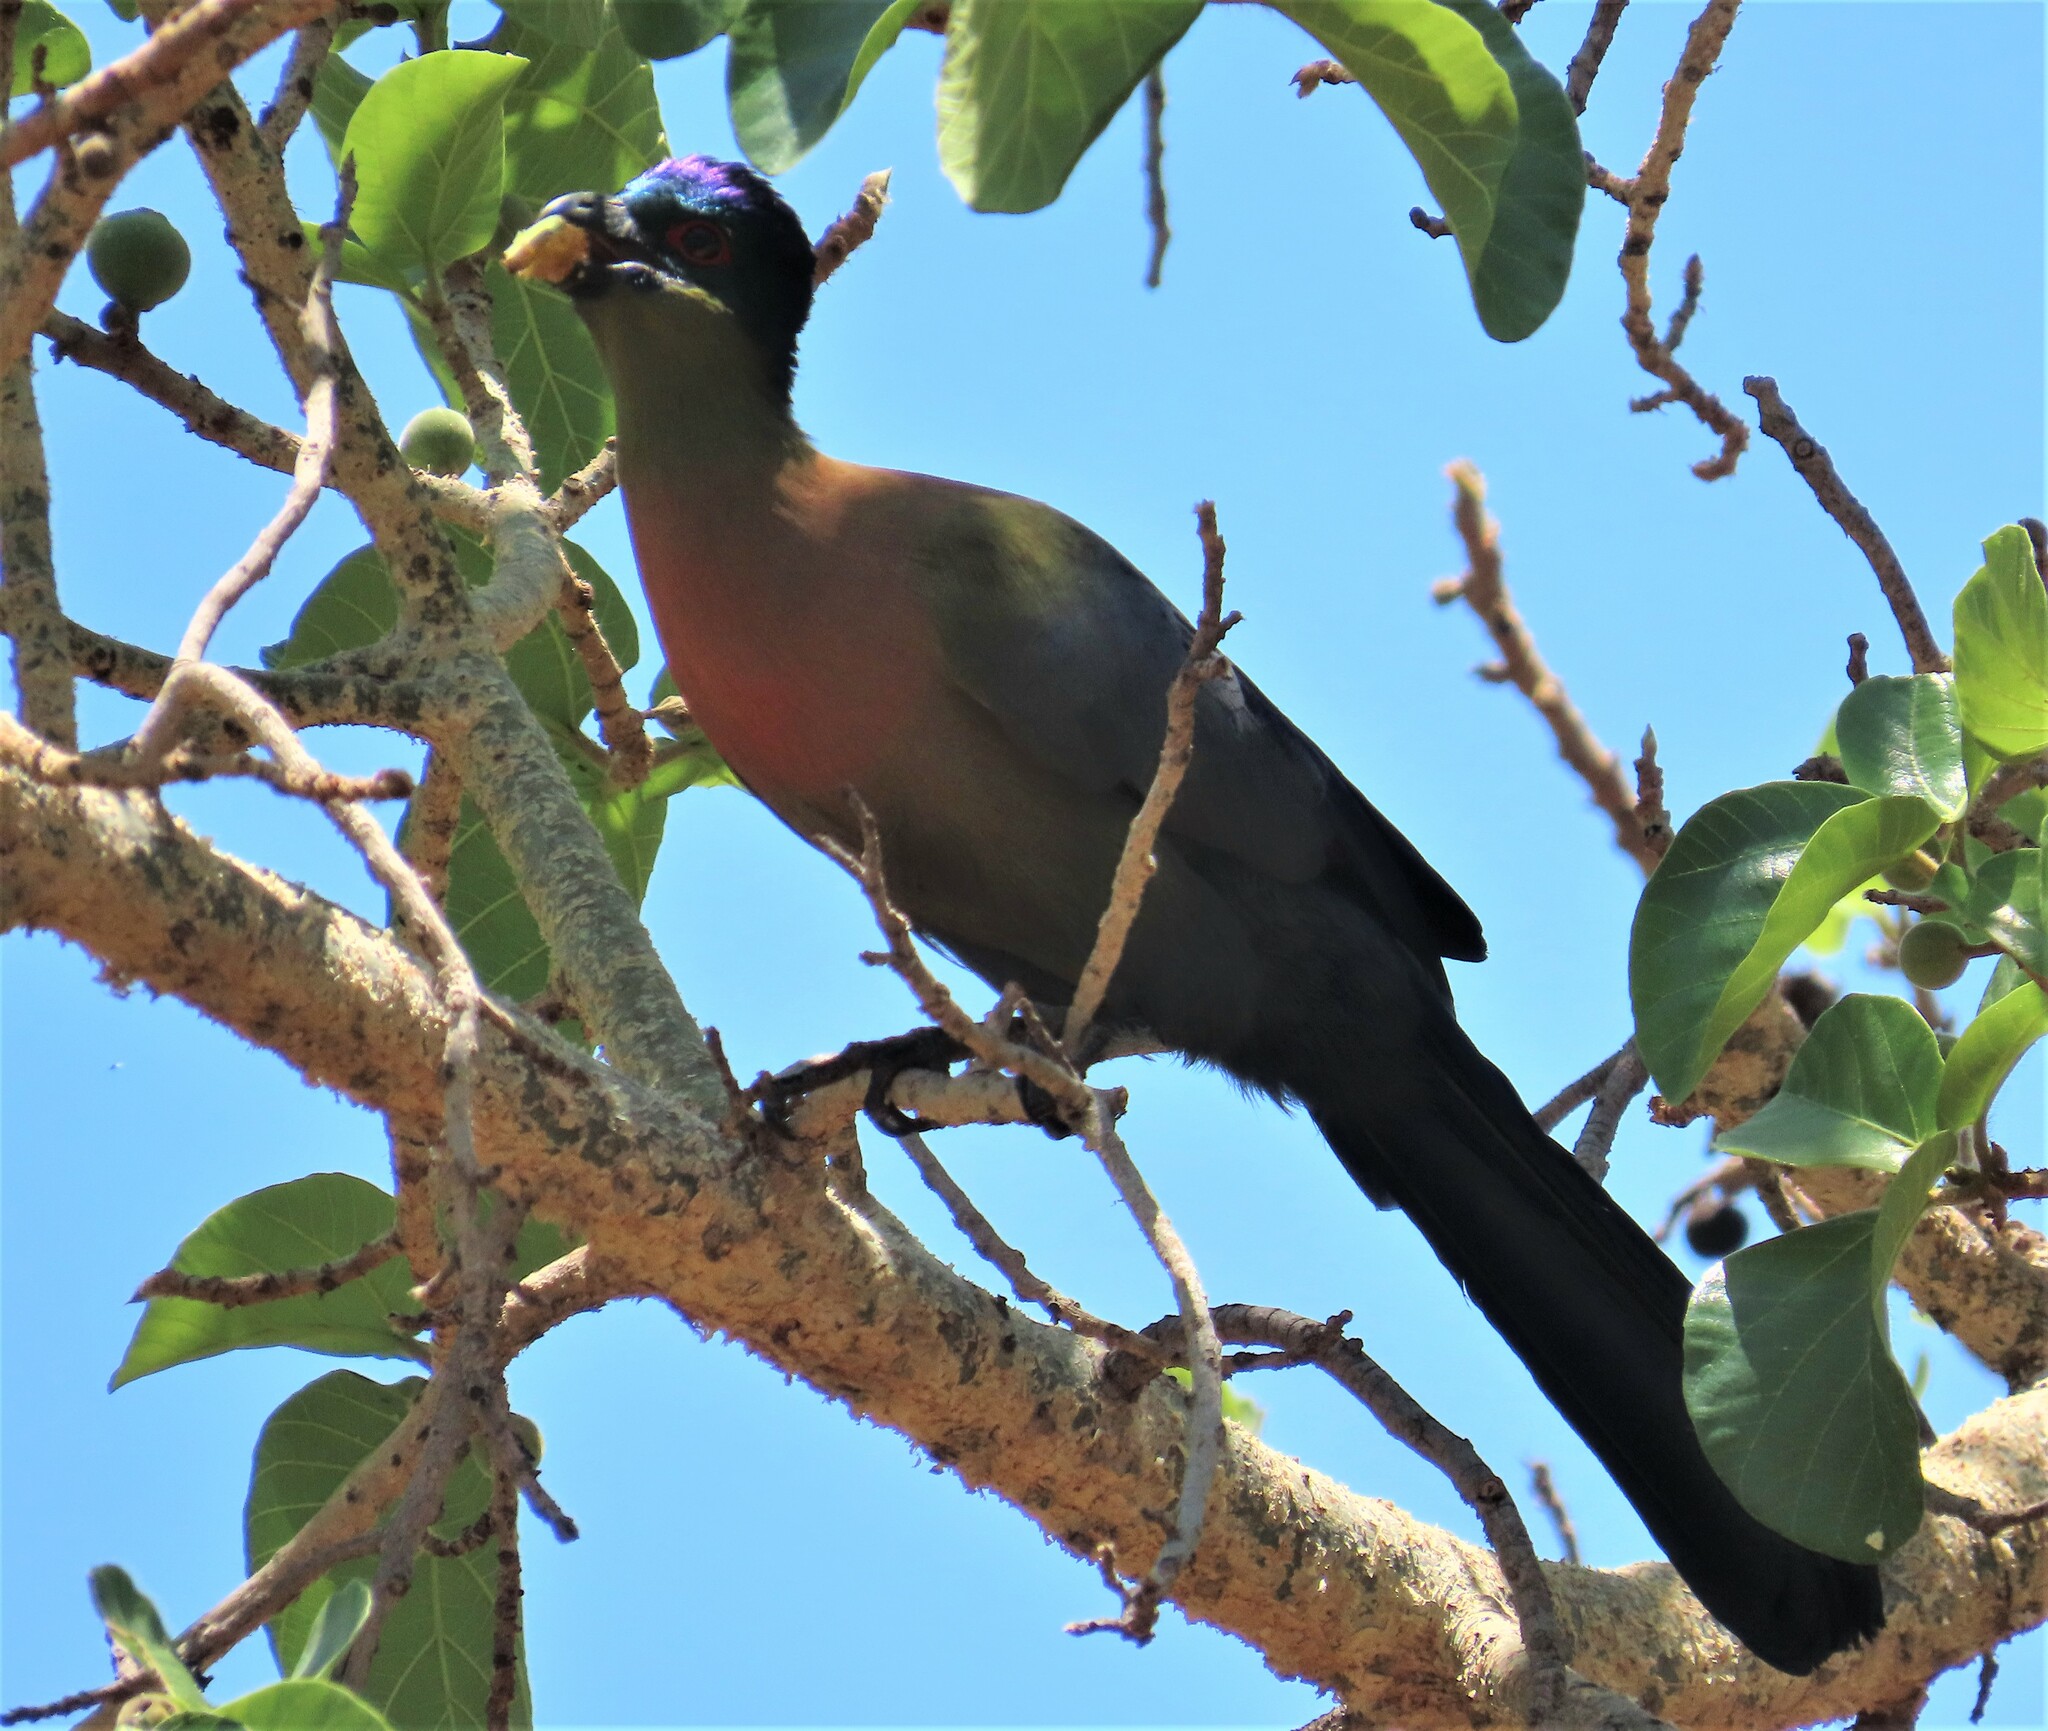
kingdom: Animalia
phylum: Chordata
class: Aves
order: Musophagiformes
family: Musophagidae
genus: Tauraco
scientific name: Tauraco porphyreolophus
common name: Purple-crested turaco
